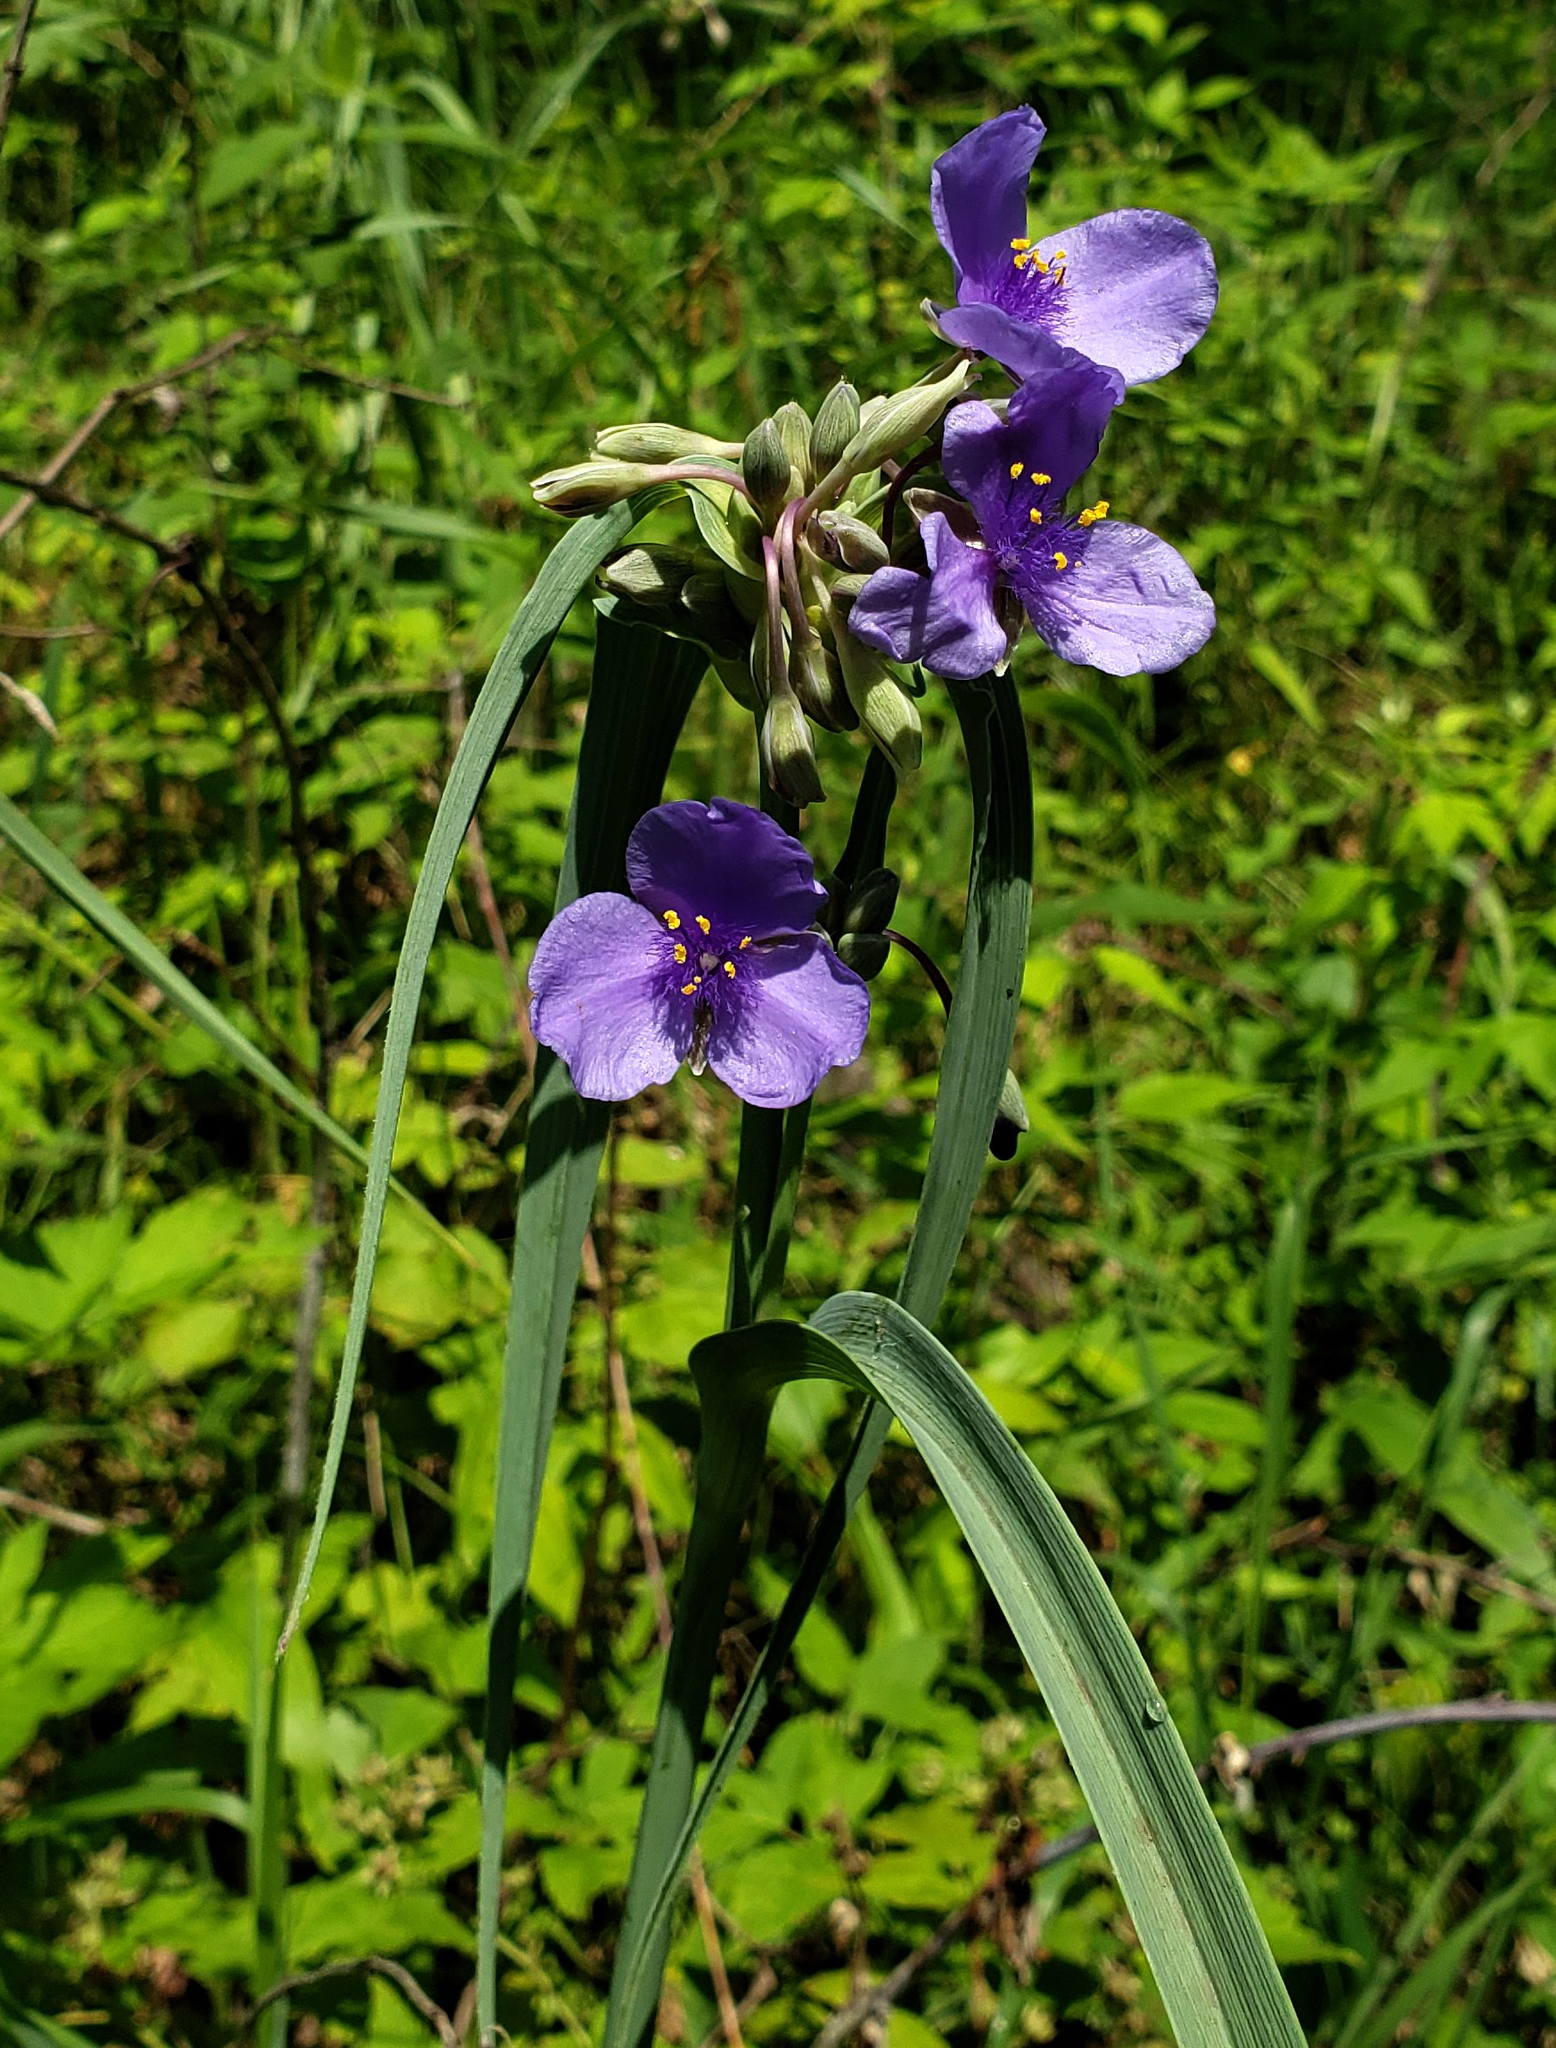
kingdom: Plantae
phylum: Tracheophyta
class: Liliopsida
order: Commelinales
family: Commelinaceae
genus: Tradescantia
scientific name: Tradescantia ohiensis
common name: Ohio spiderwort
